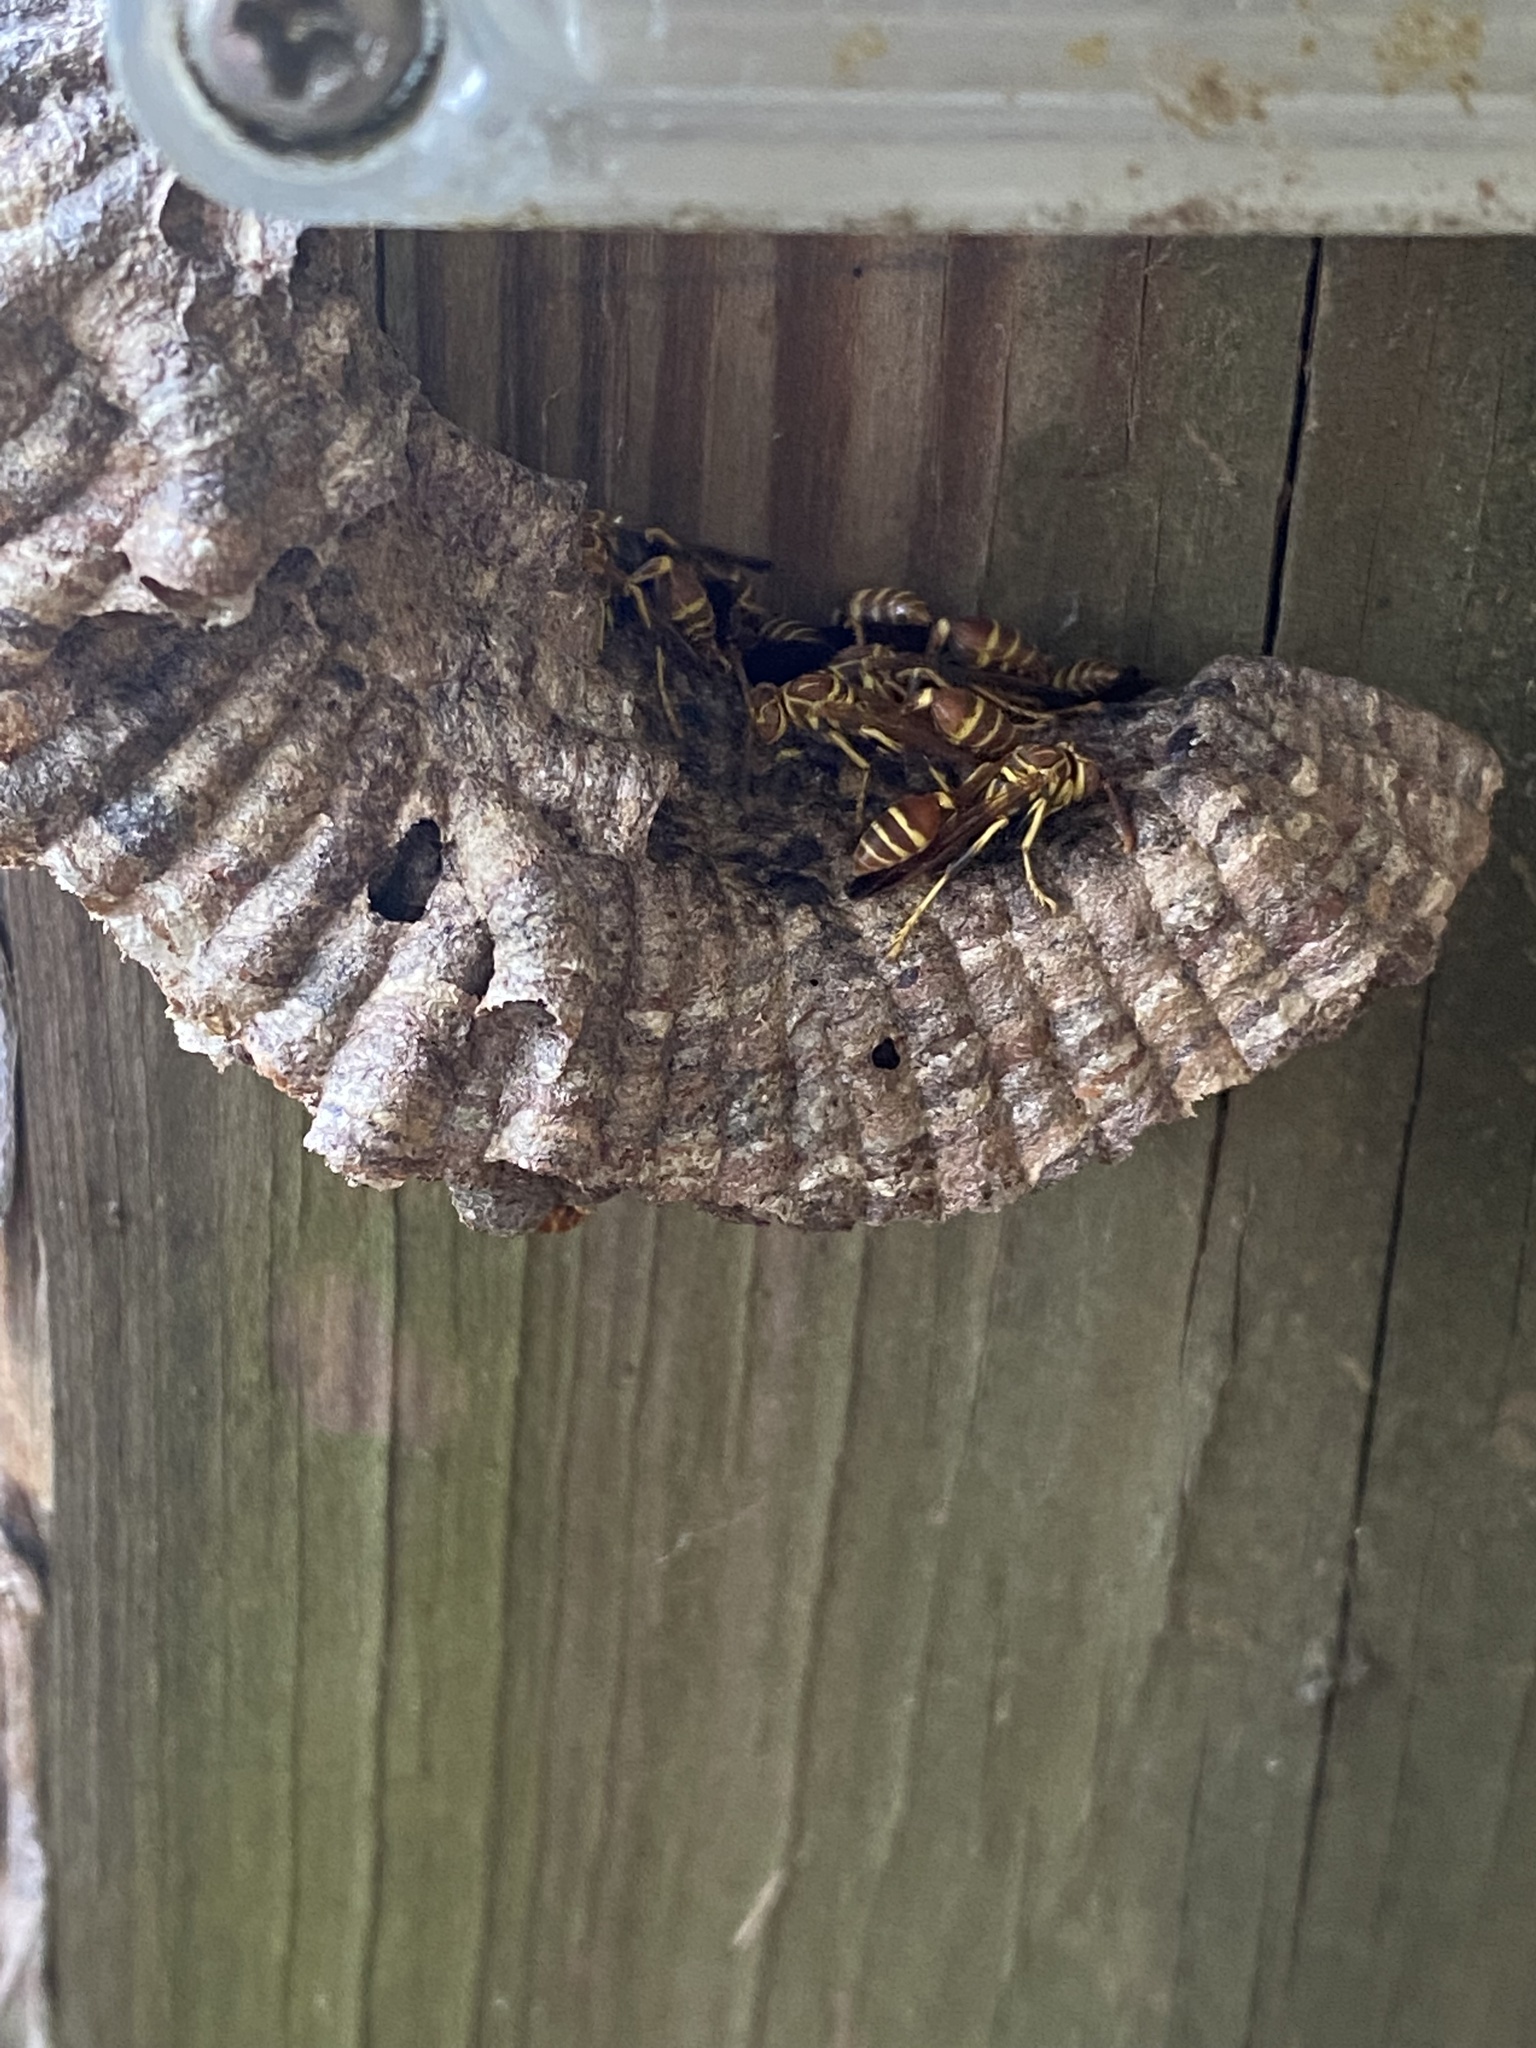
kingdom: Animalia
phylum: Arthropoda
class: Insecta
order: Hymenoptera
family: Vespidae
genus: Mischocyttarus
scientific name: Mischocyttarus mexicanus
